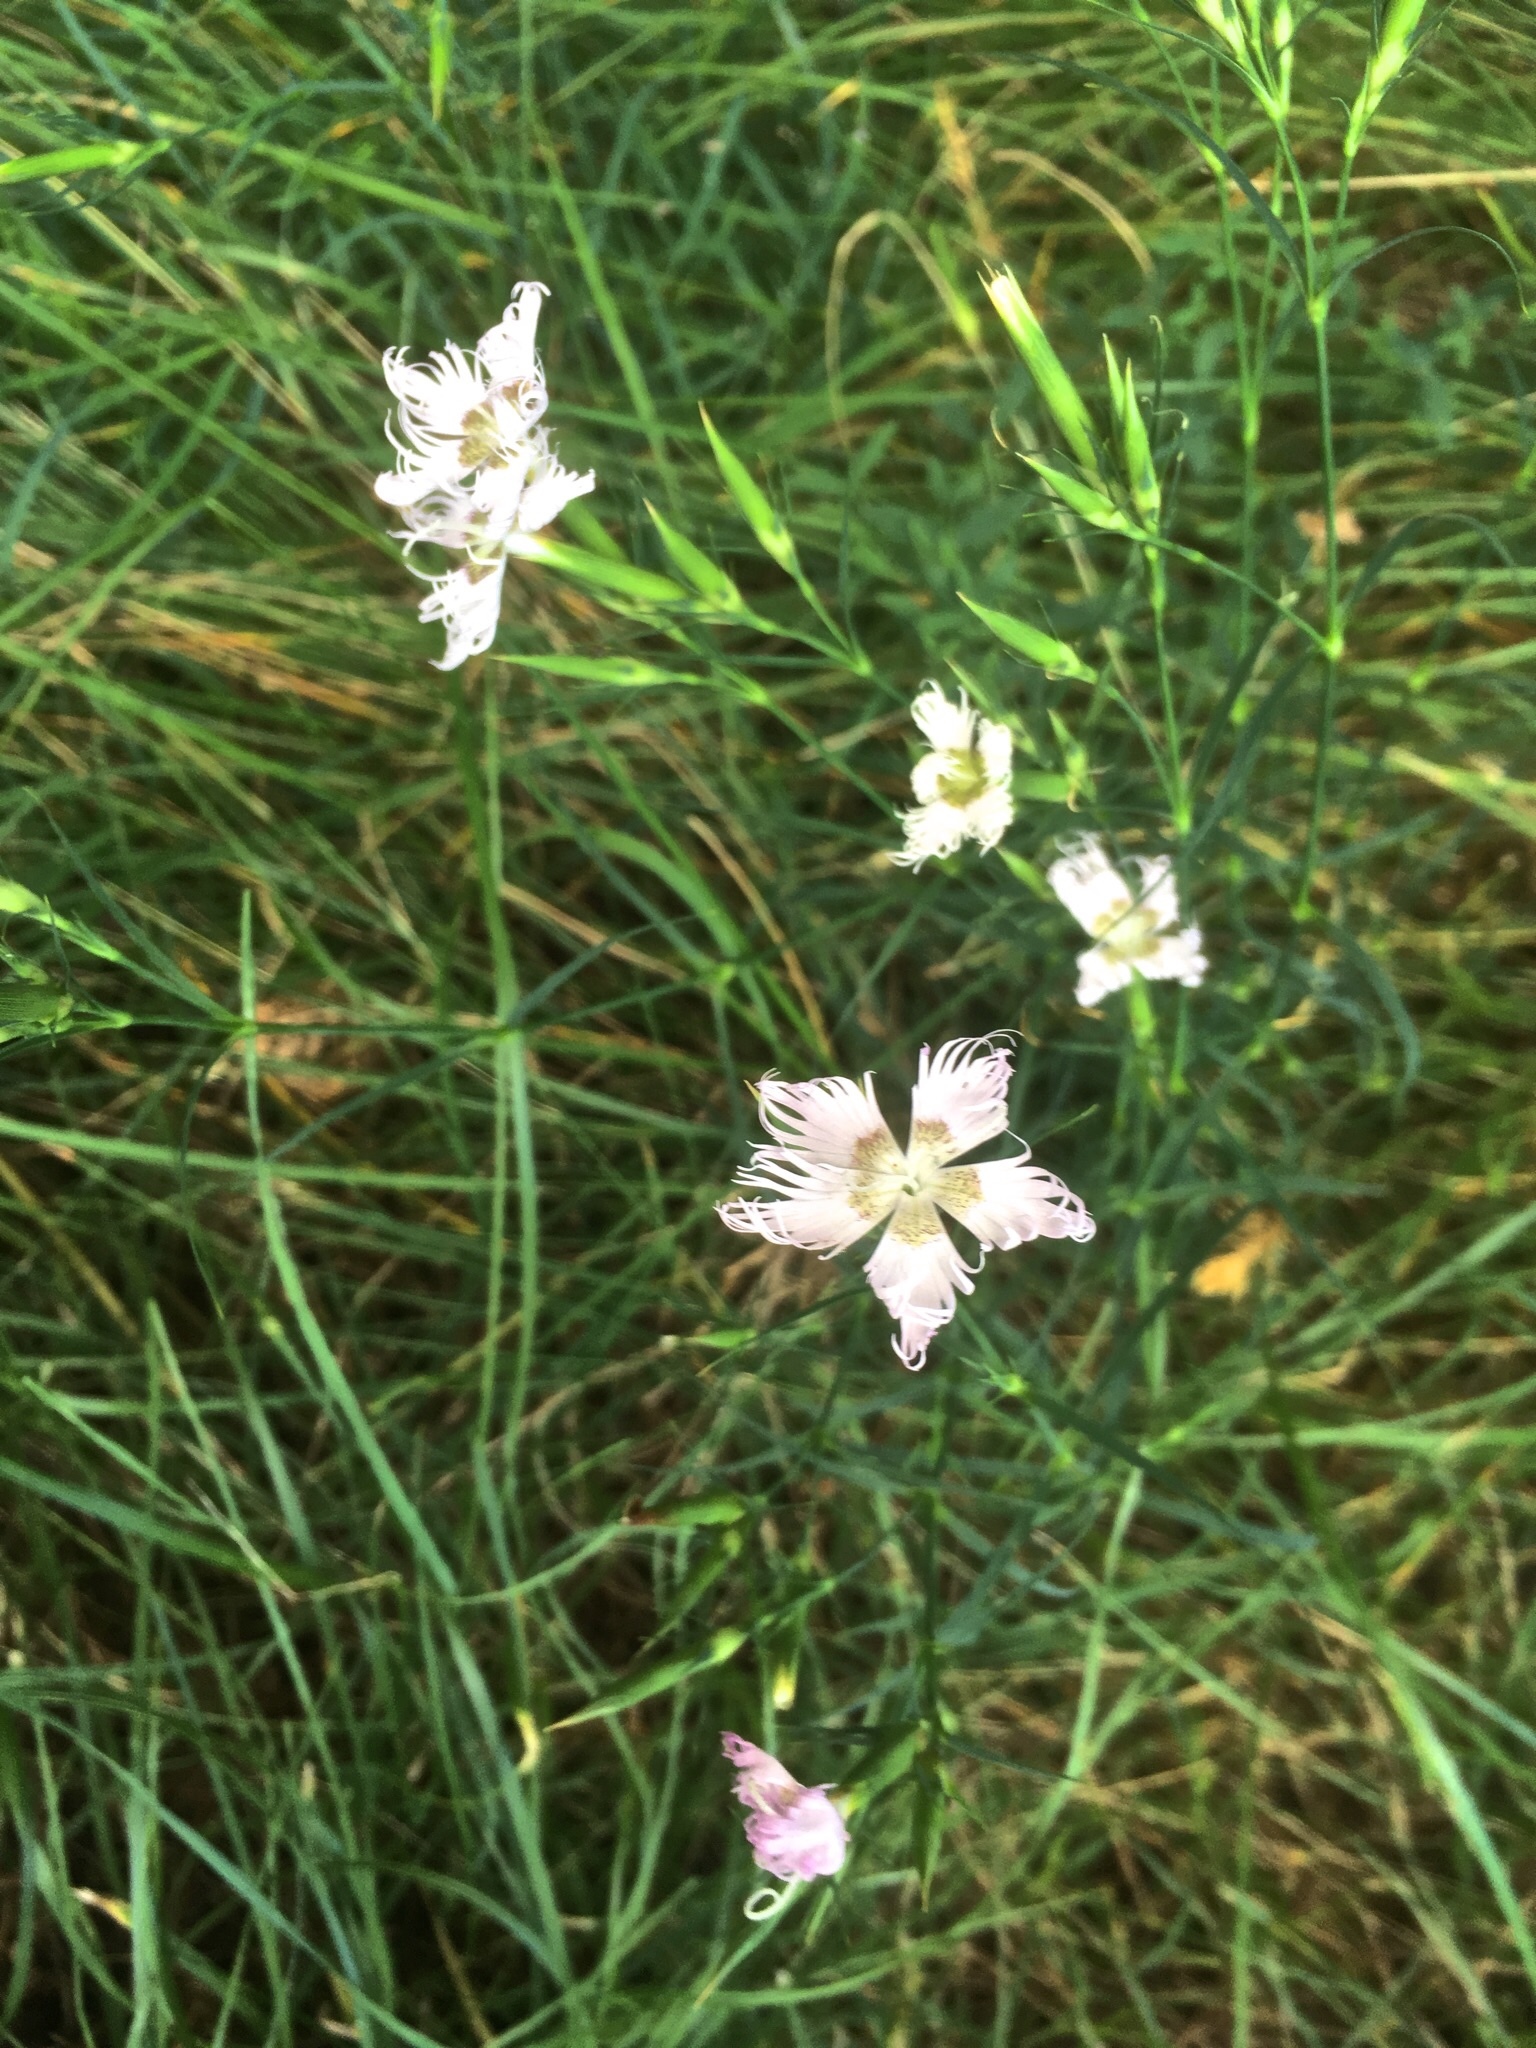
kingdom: Plantae
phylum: Tracheophyta
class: Magnoliopsida
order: Caryophyllales
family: Caryophyllaceae
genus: Dianthus
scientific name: Dianthus hyssopifolius
